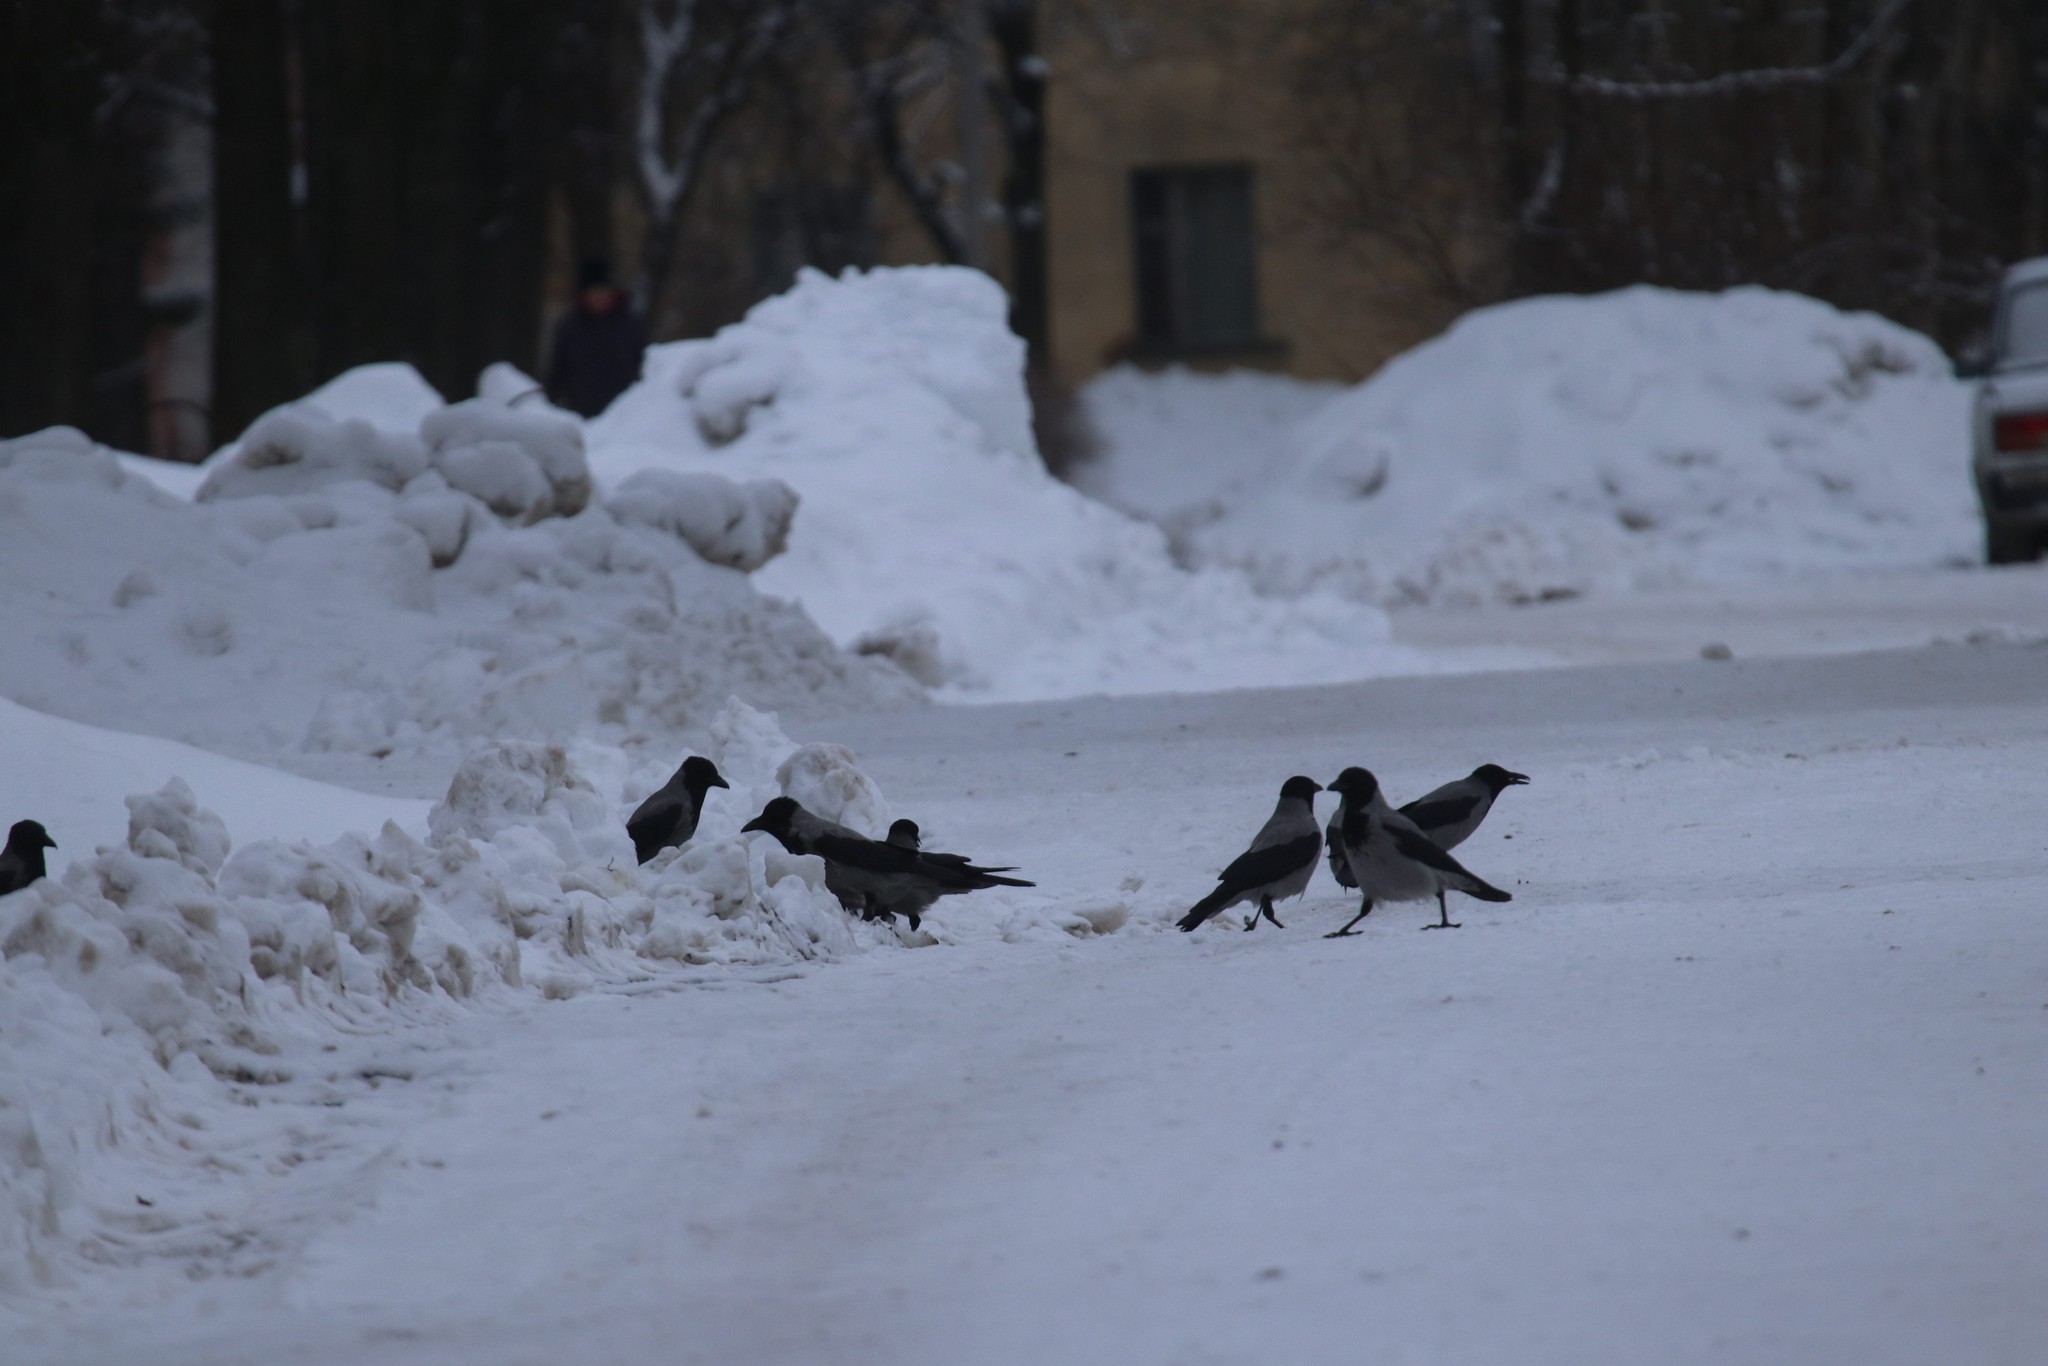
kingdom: Animalia
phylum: Chordata
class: Aves
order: Passeriformes
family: Corvidae
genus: Corvus
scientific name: Corvus cornix
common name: Hooded crow
